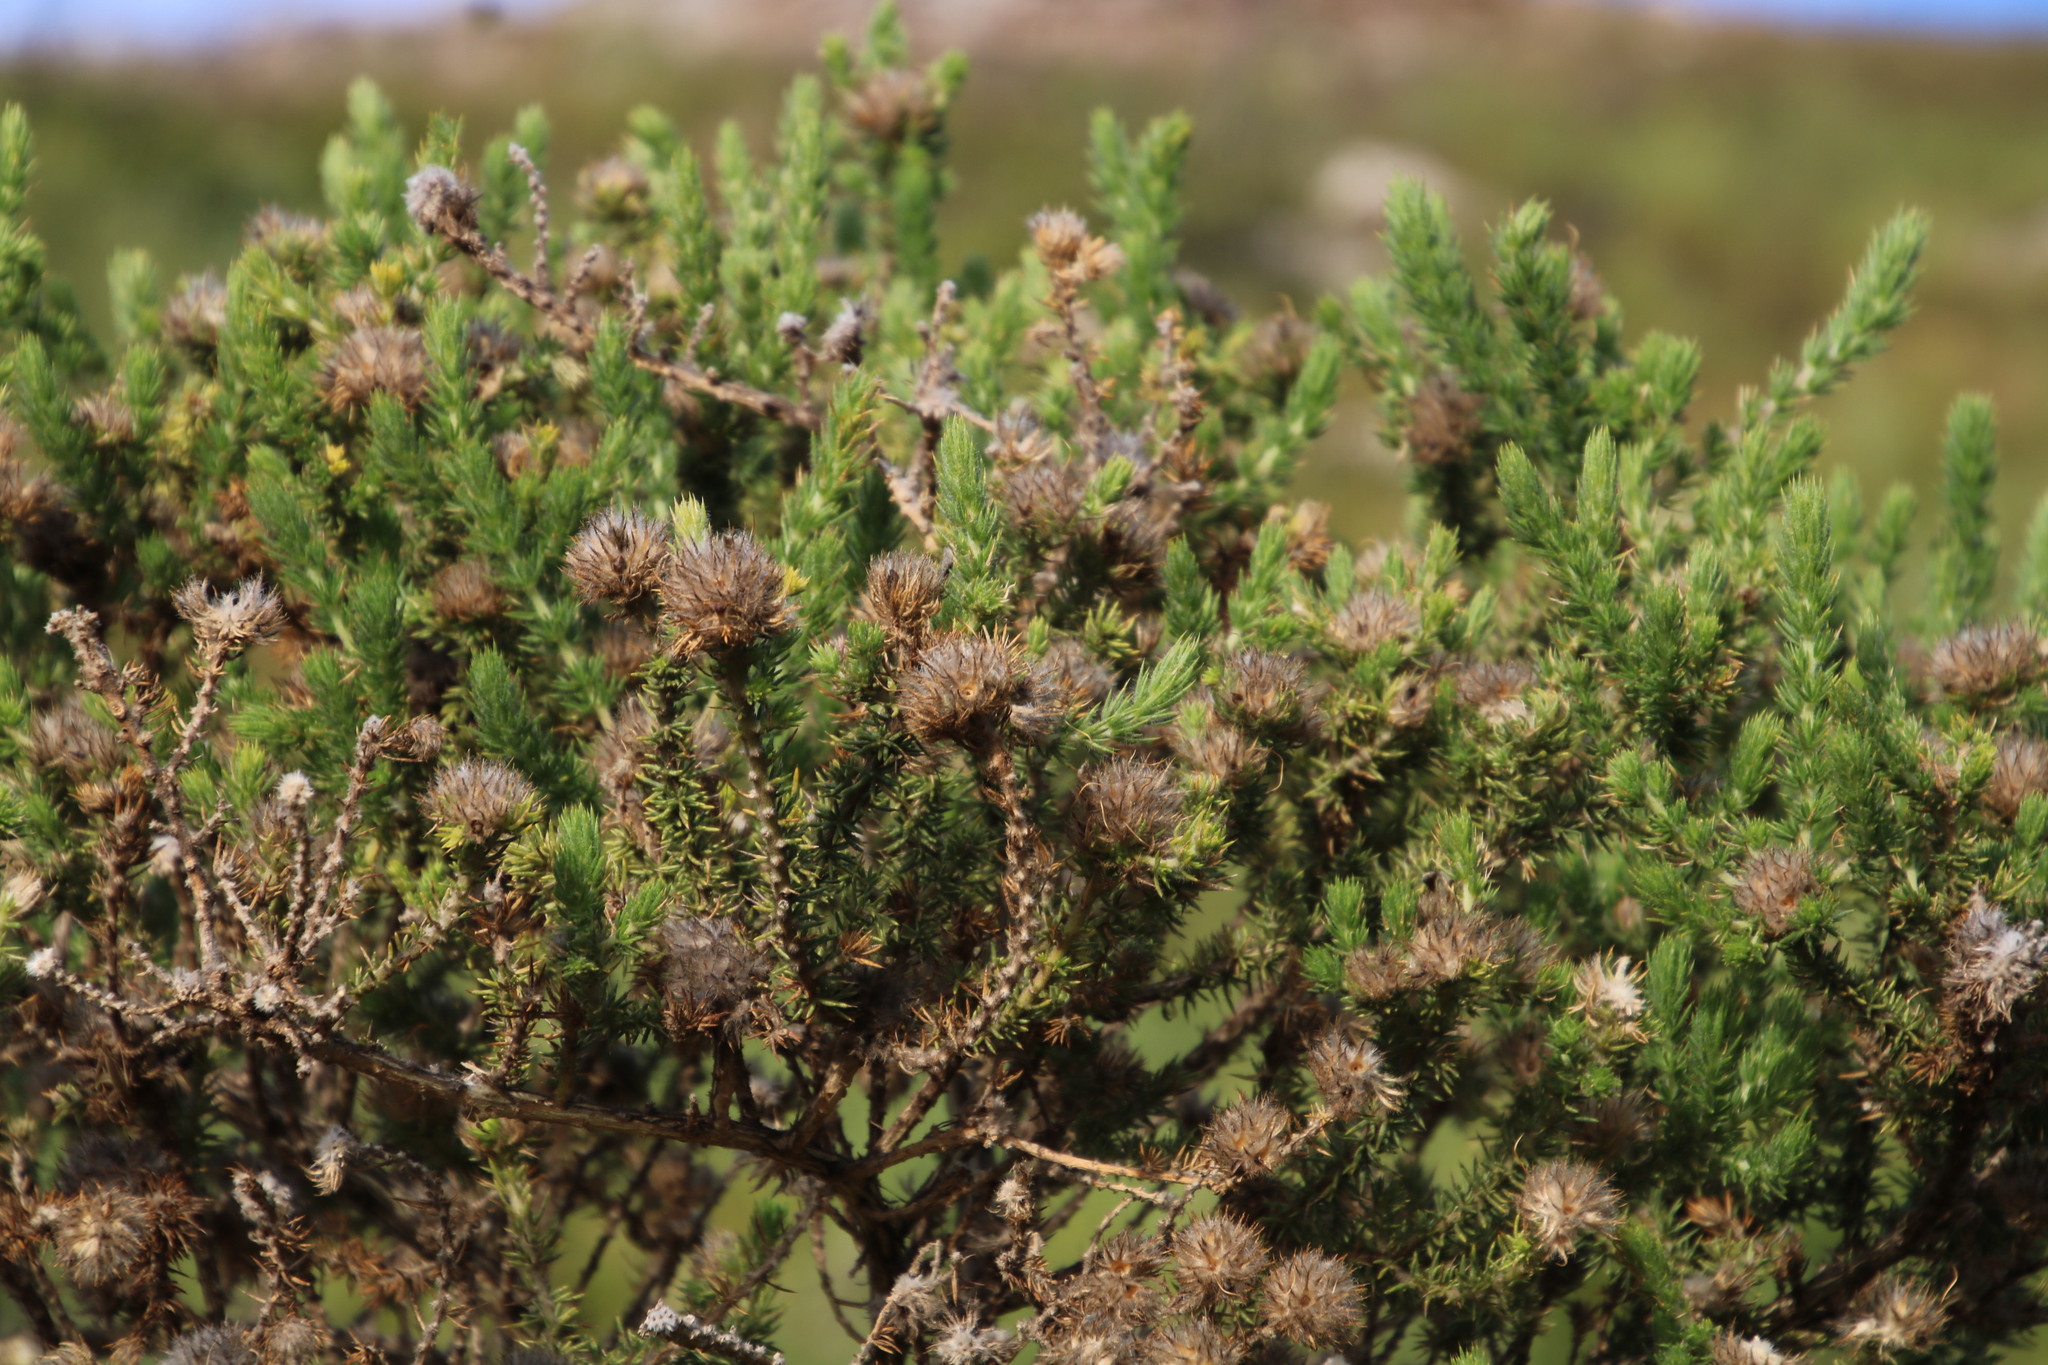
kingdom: Plantae
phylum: Tracheophyta
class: Magnoliopsida
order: Fabales
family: Fabaceae
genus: Aspalathus
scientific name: Aspalathus chenopoda
